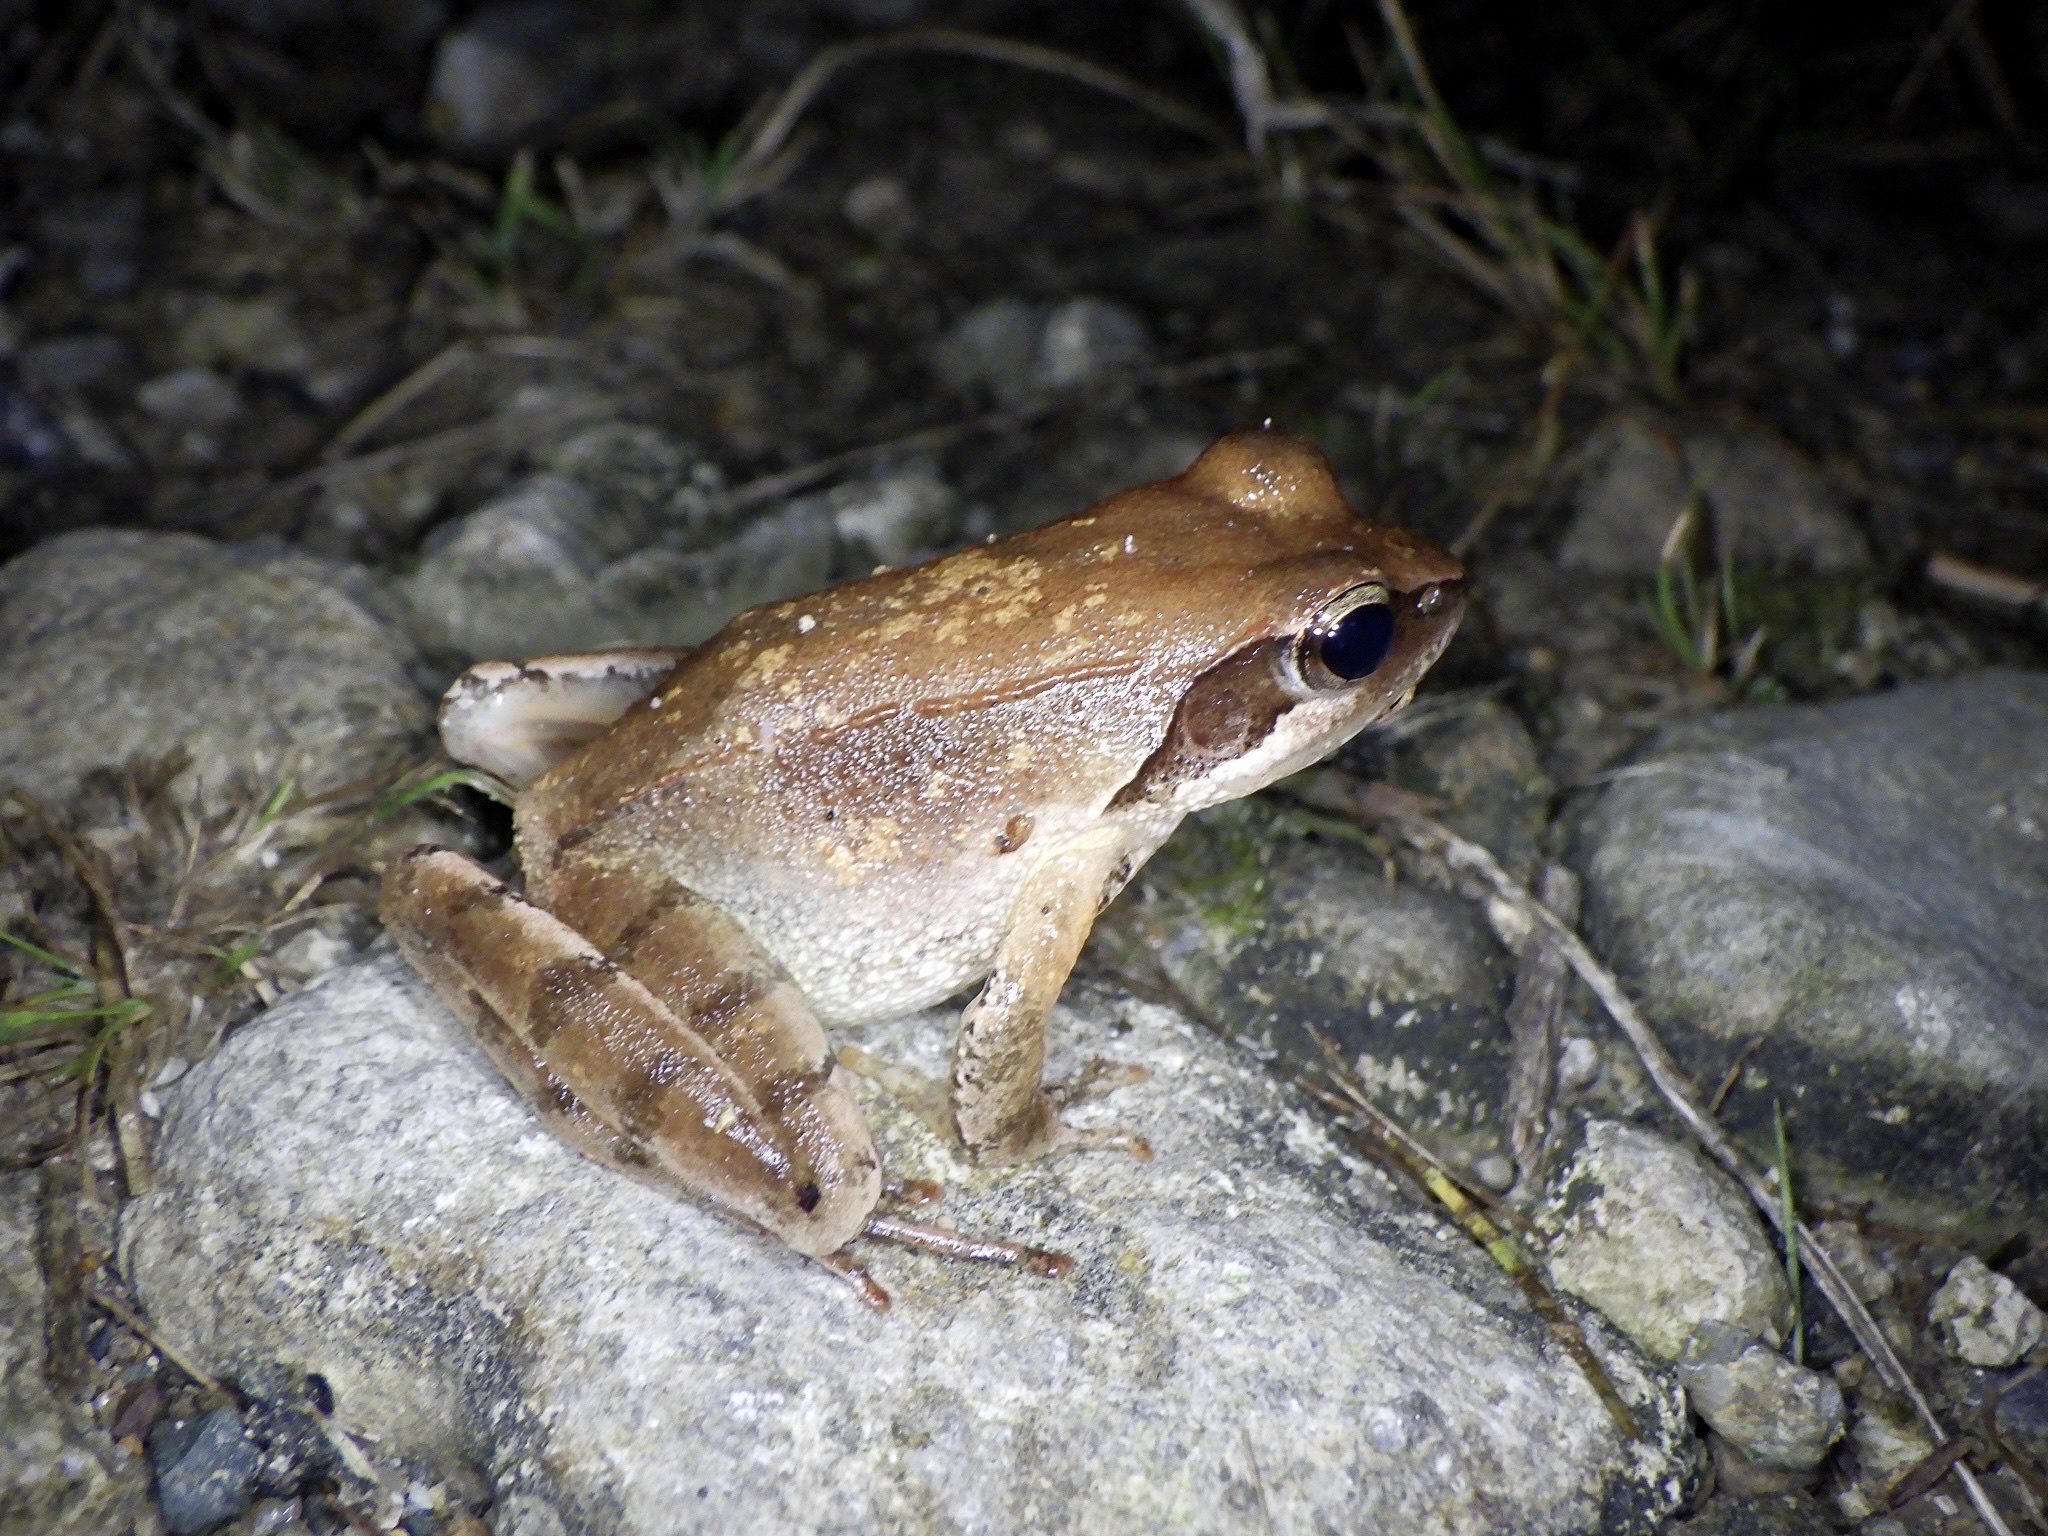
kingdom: Animalia
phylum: Chordata
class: Amphibia
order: Anura
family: Ranidae
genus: Rana
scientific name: Rana japonica
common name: Japanese brown frog
